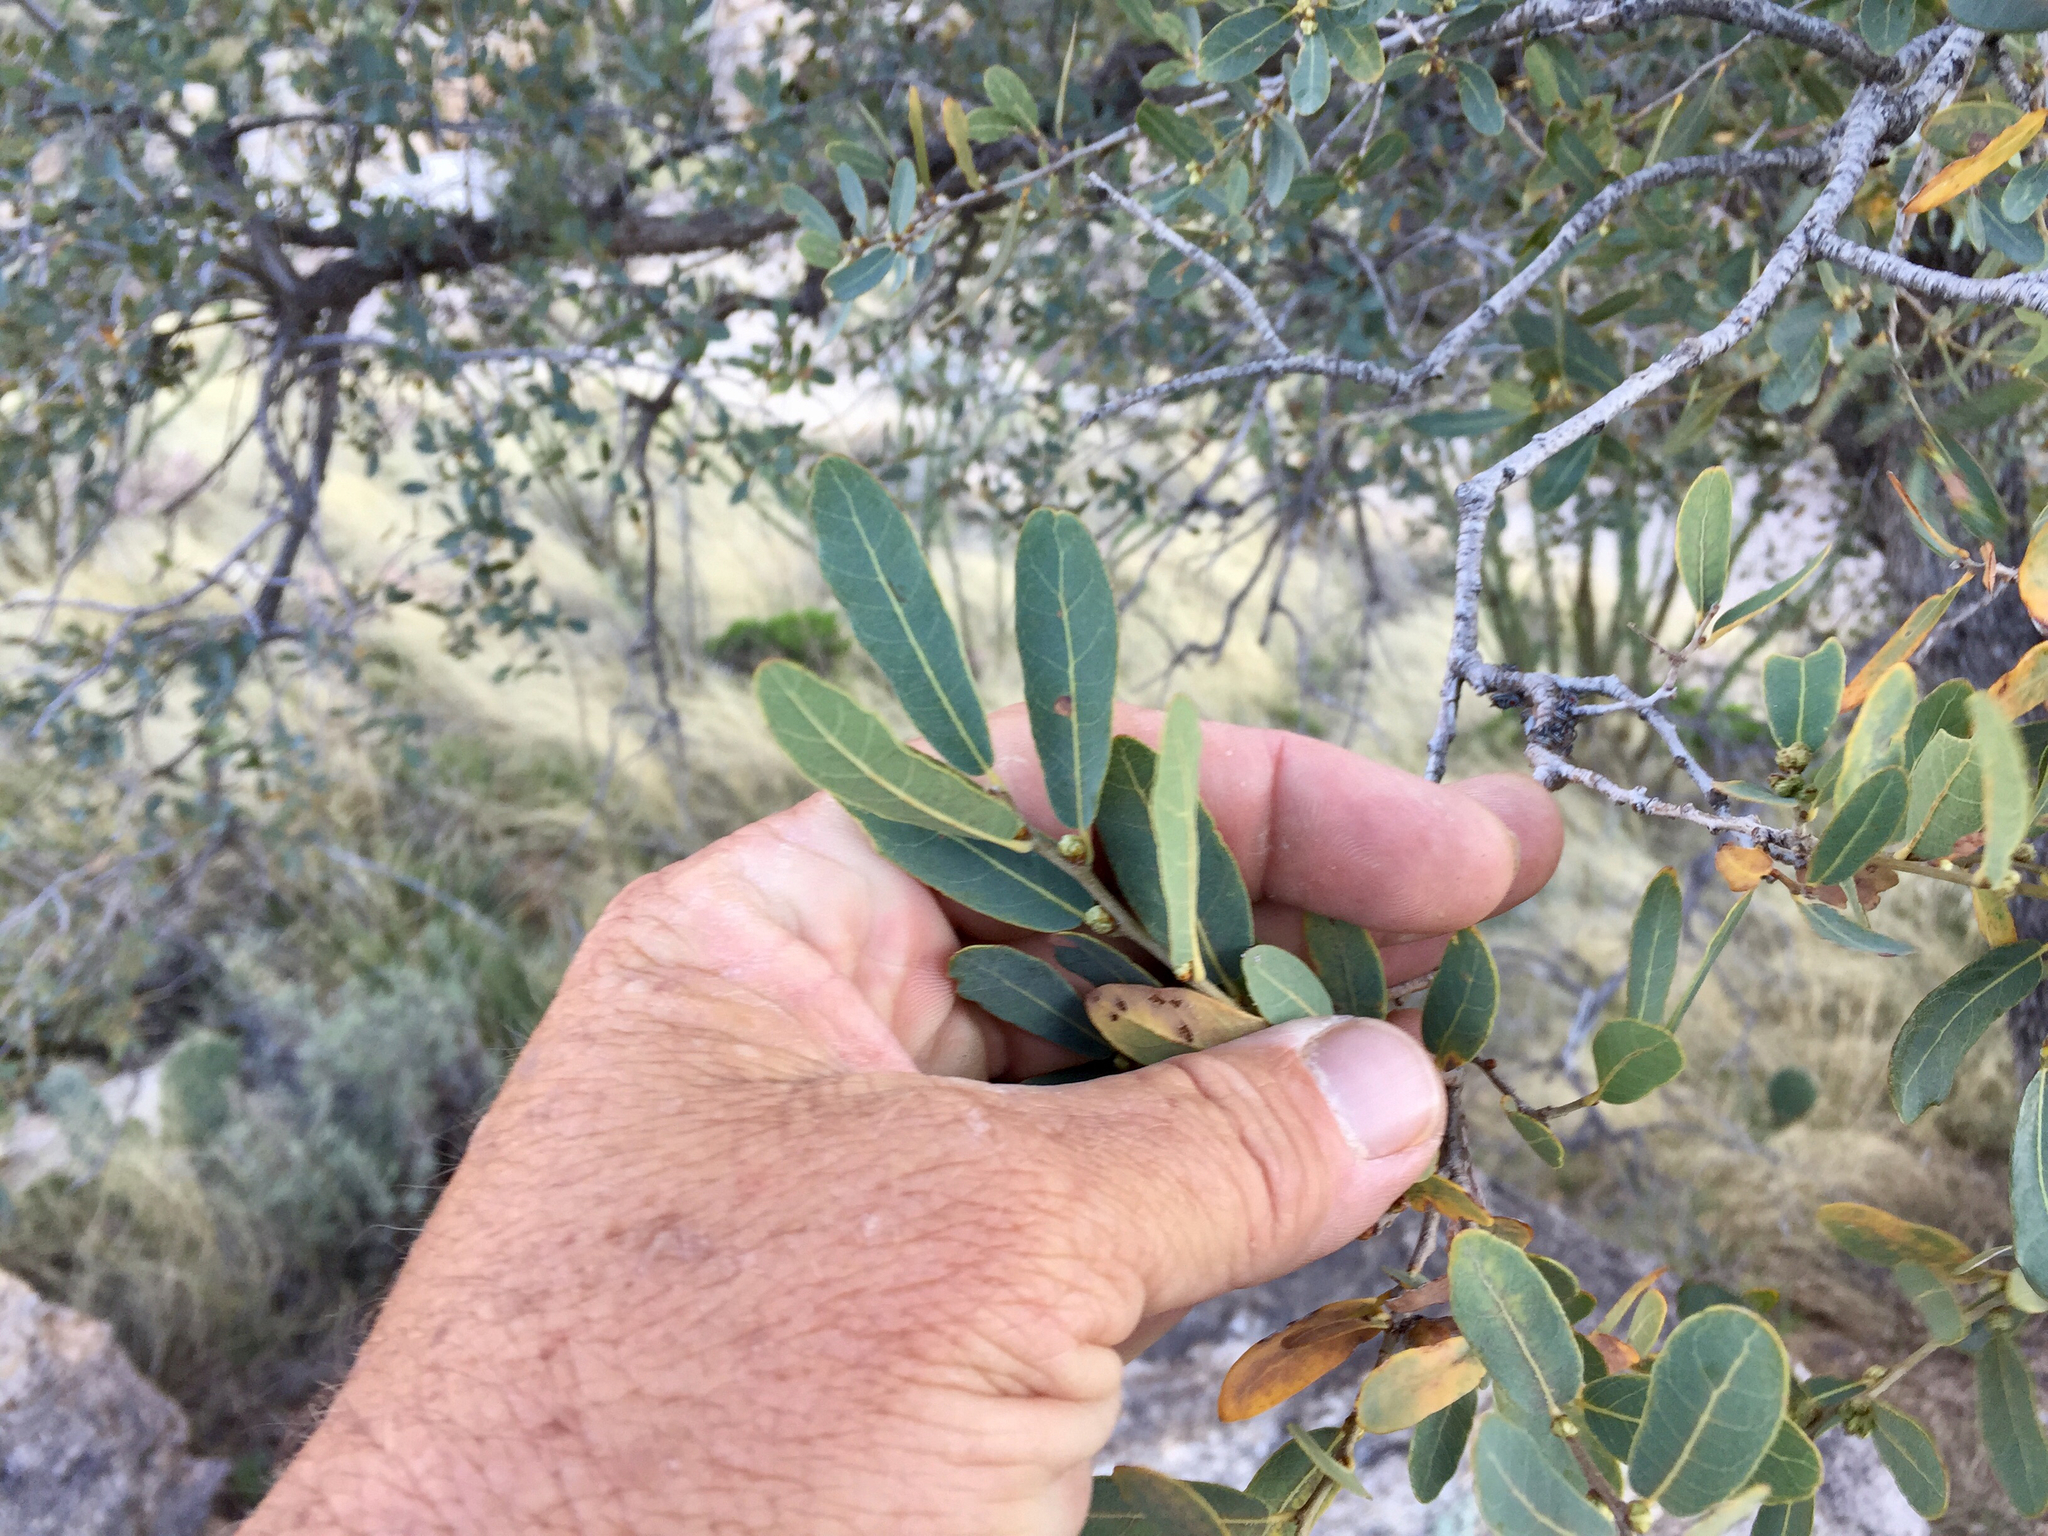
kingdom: Plantae
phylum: Tracheophyta
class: Magnoliopsida
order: Fagales
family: Fagaceae
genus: Quercus
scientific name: Quercus oblongifolia
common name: Mexican blue oak
